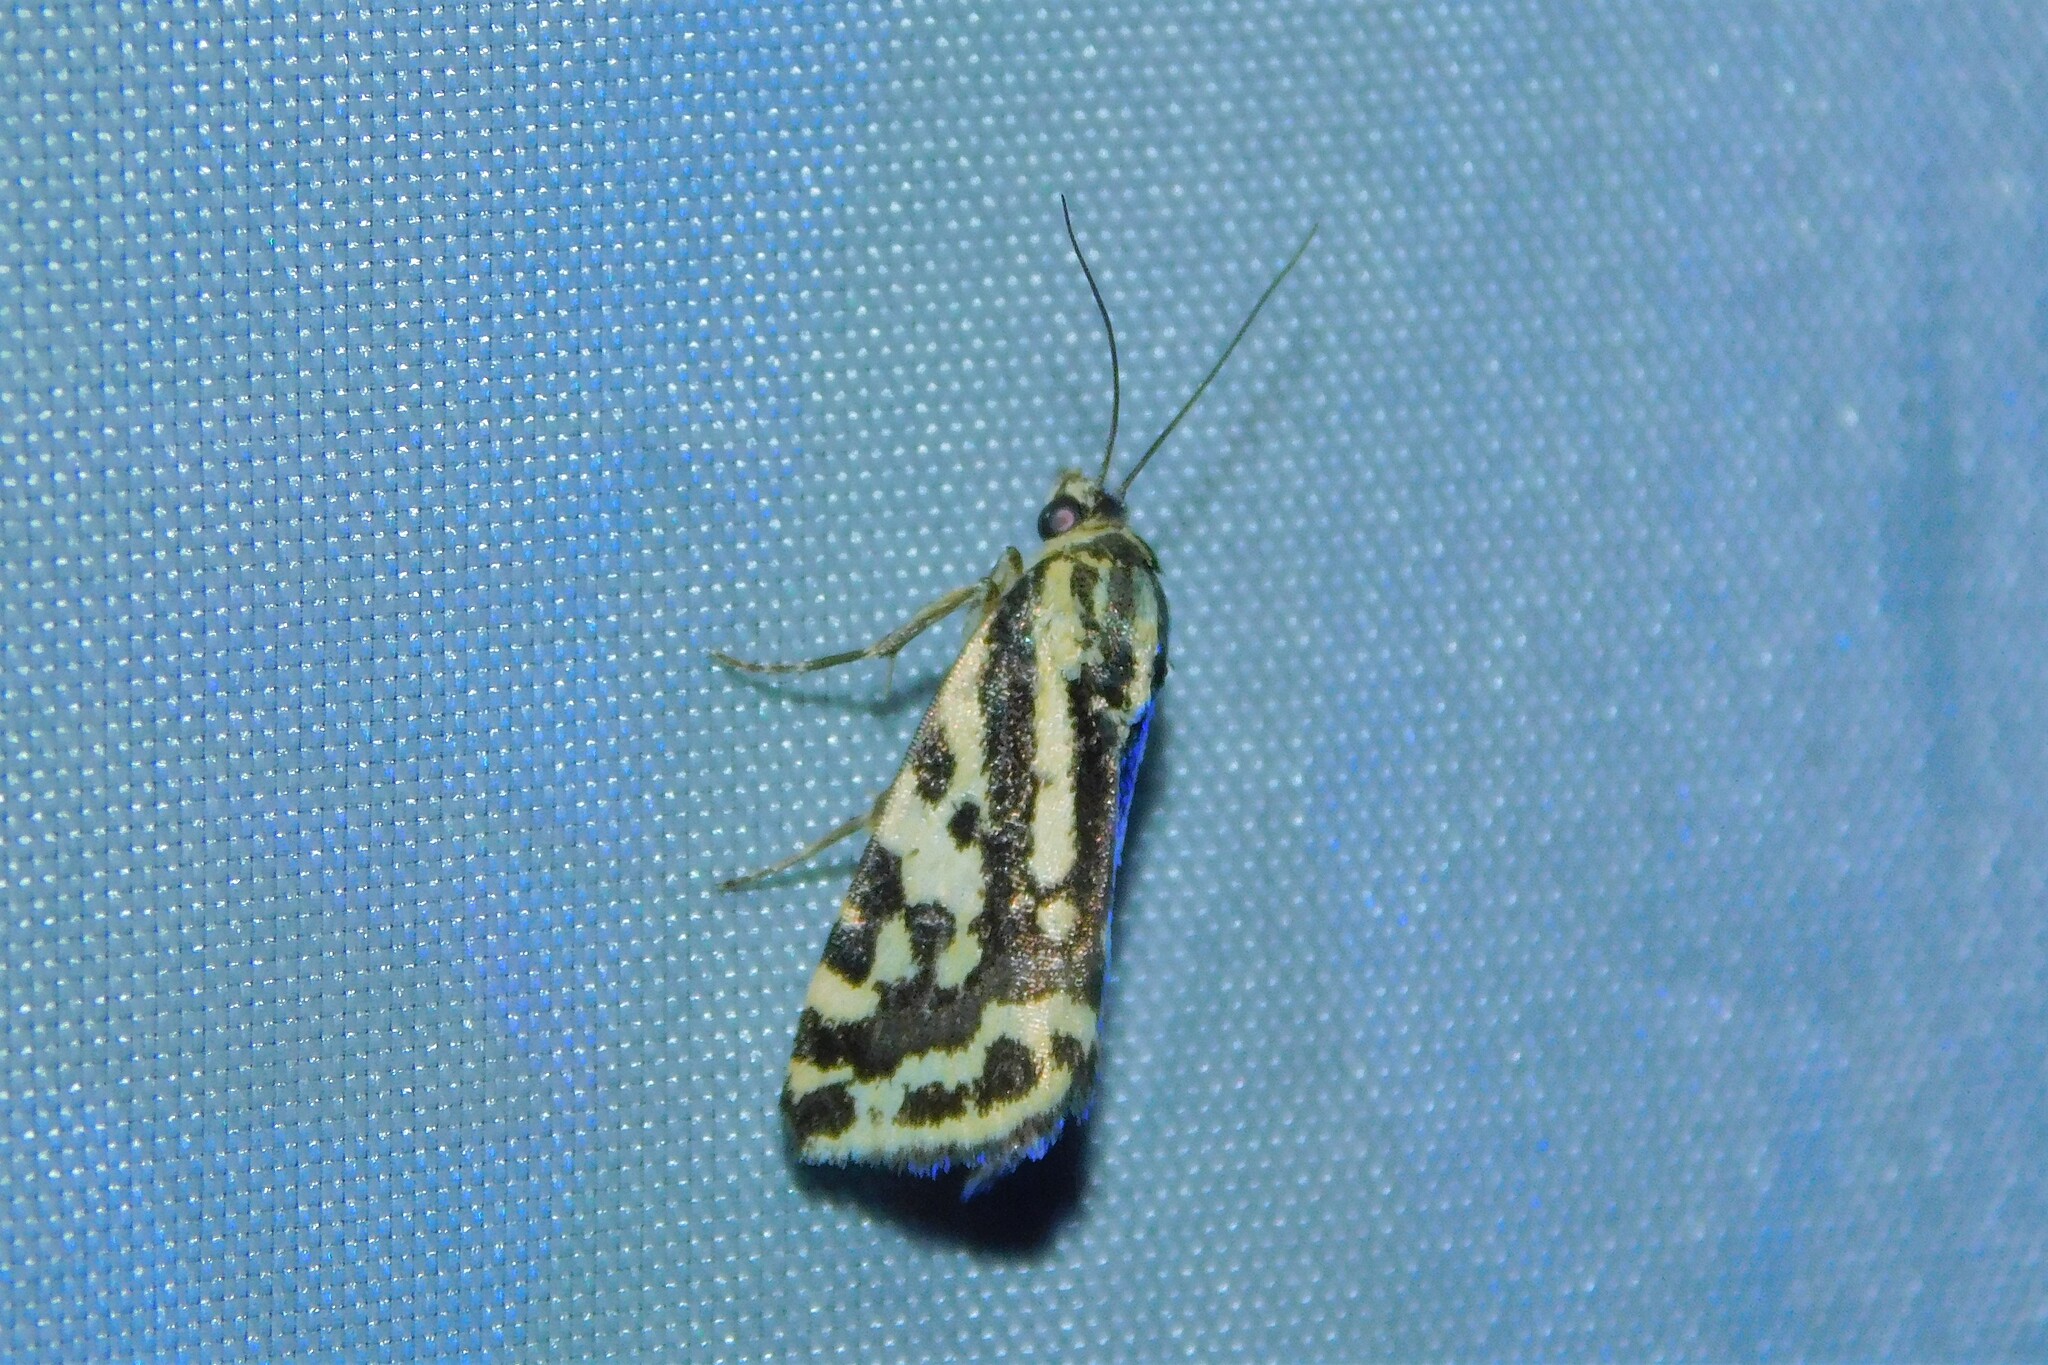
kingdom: Animalia
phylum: Arthropoda
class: Insecta
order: Lepidoptera
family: Noctuidae
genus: Acontia
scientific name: Acontia trabealis
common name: Spotted sulphur
